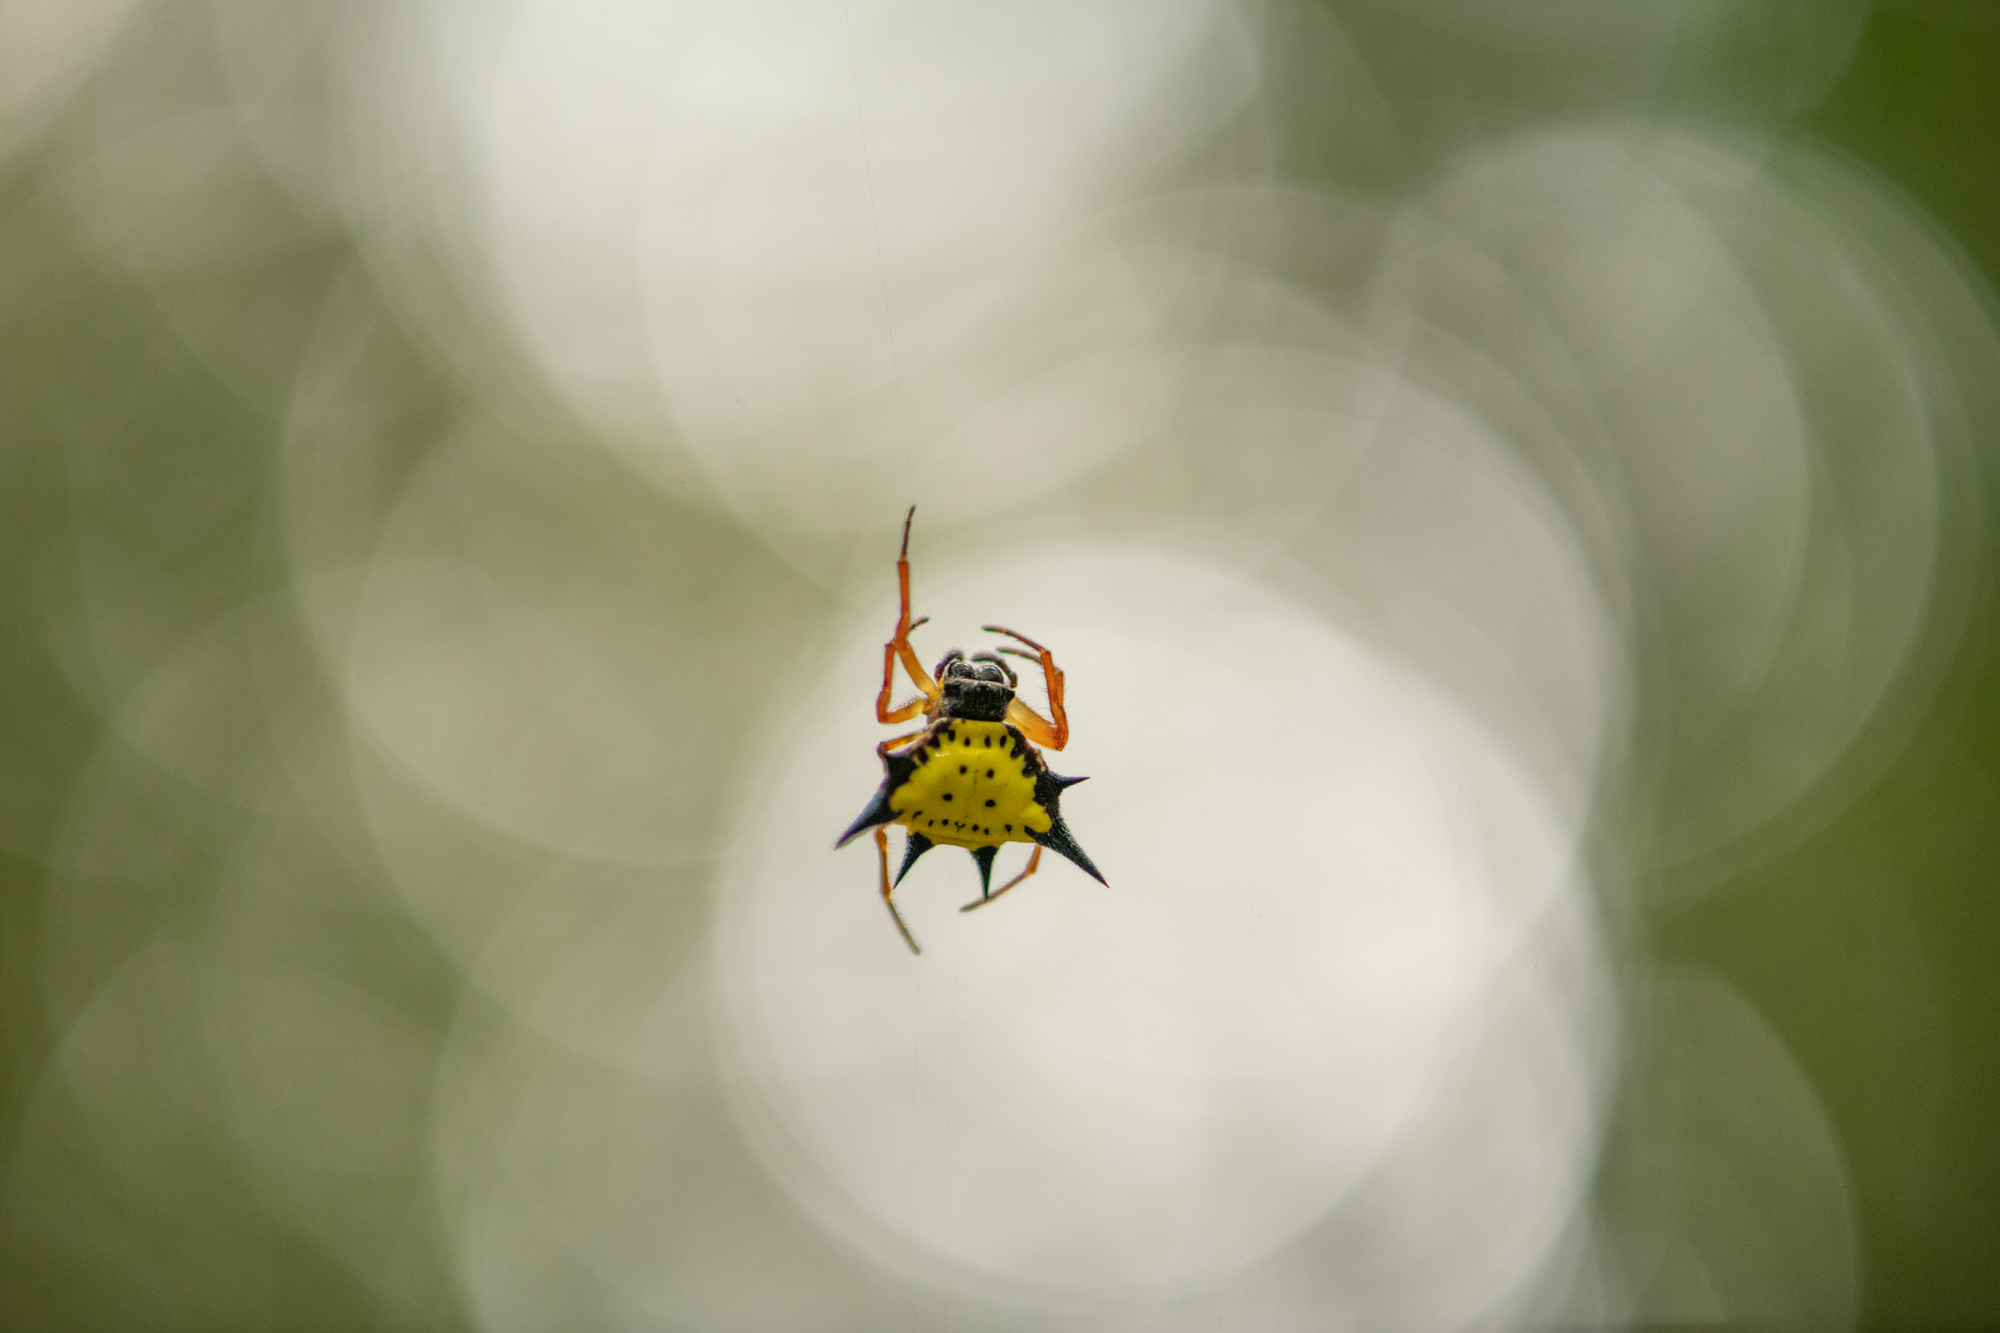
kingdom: Animalia
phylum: Arthropoda
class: Arachnida
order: Araneae
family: Araneidae
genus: Macracantha
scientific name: Macracantha hasselti
